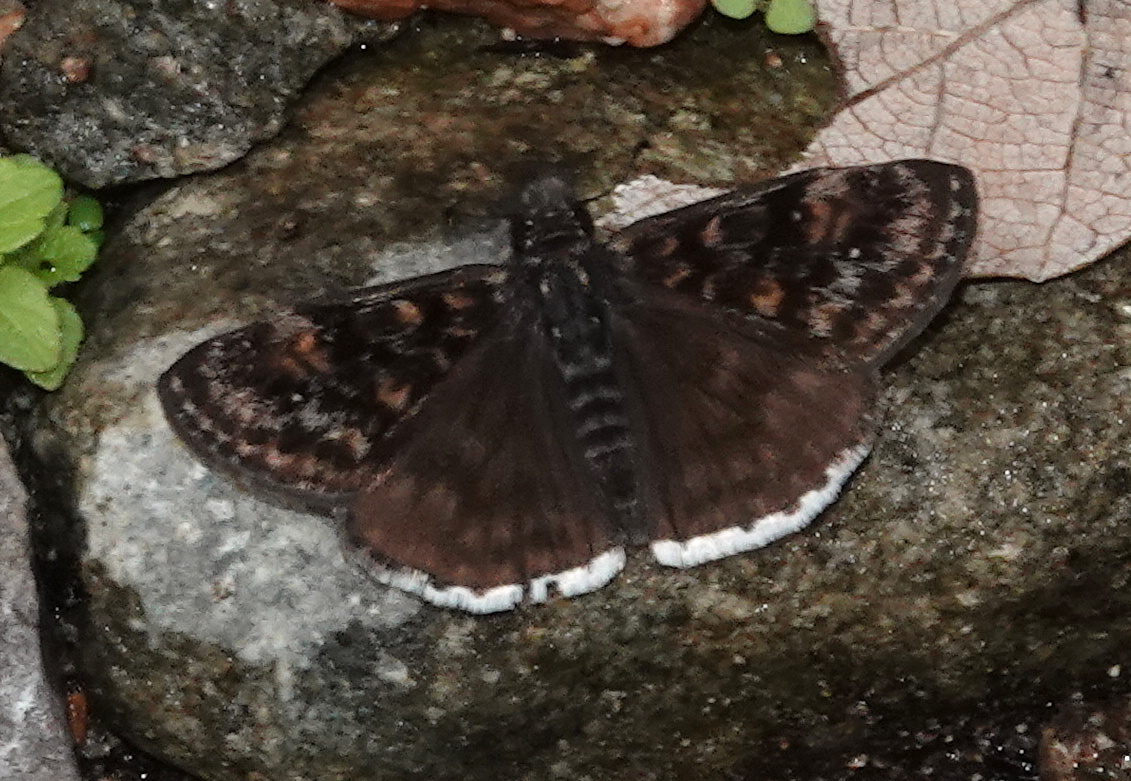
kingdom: Animalia
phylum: Arthropoda
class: Insecta
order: Lepidoptera
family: Hesperiidae
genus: Erynnis
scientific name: Erynnis pacuvius
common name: Pacuvius duskywing
